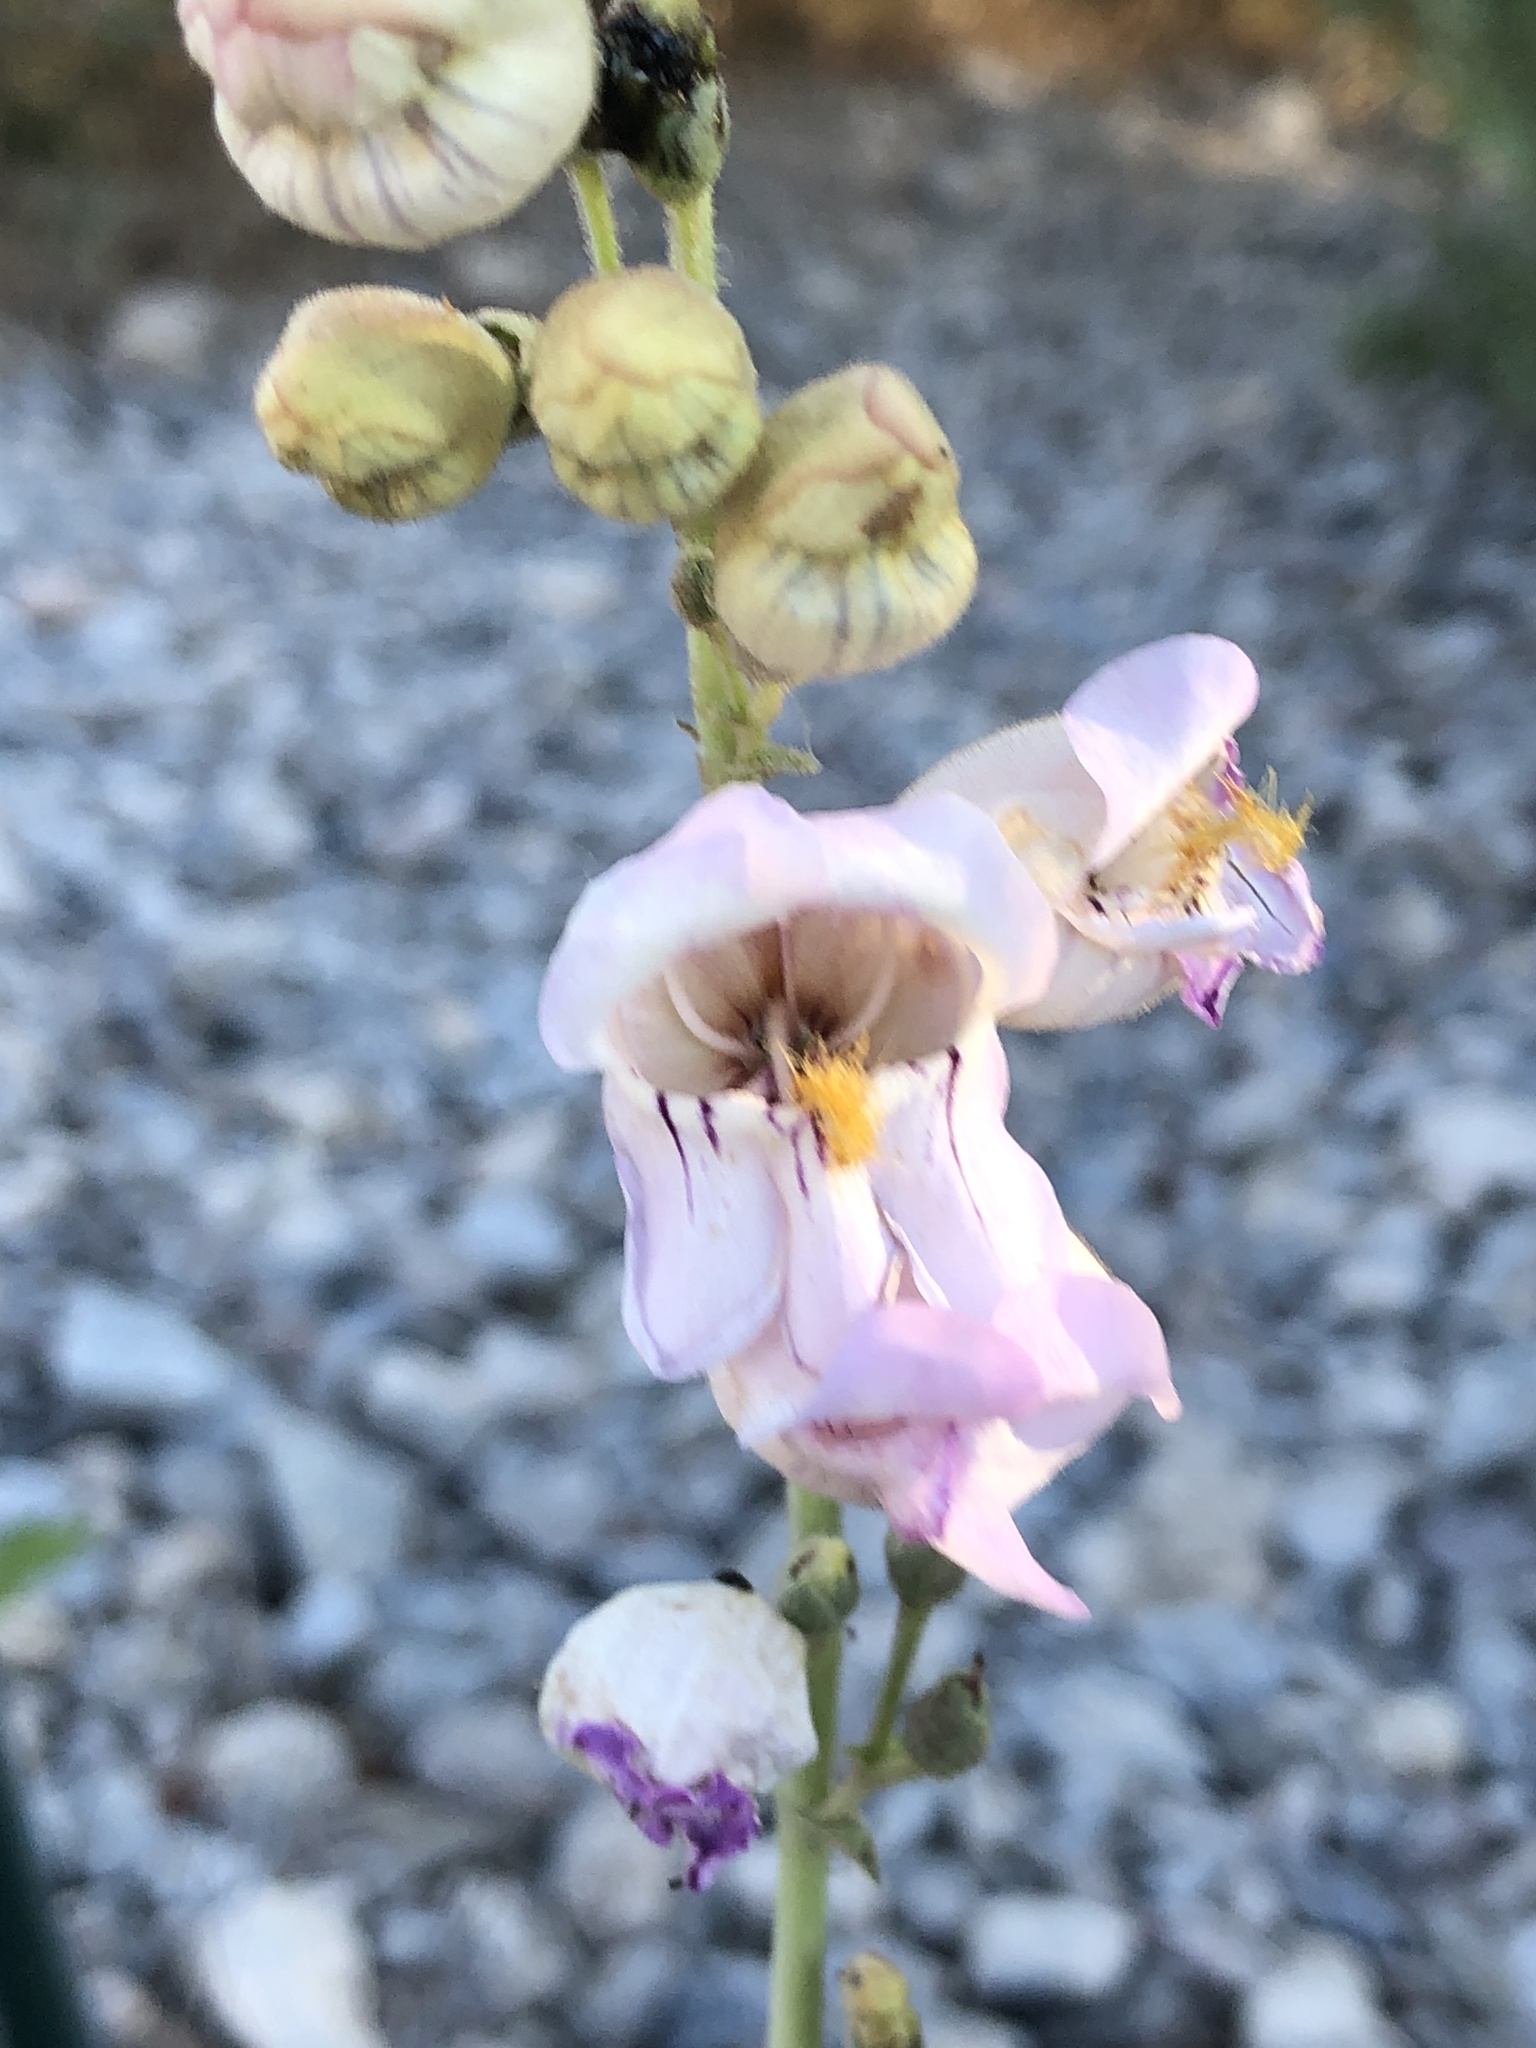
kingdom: Plantae
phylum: Tracheophyta
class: Magnoliopsida
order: Lamiales
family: Plantaginaceae
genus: Penstemon
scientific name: Penstemon palmeri
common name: Palmer penstemon
